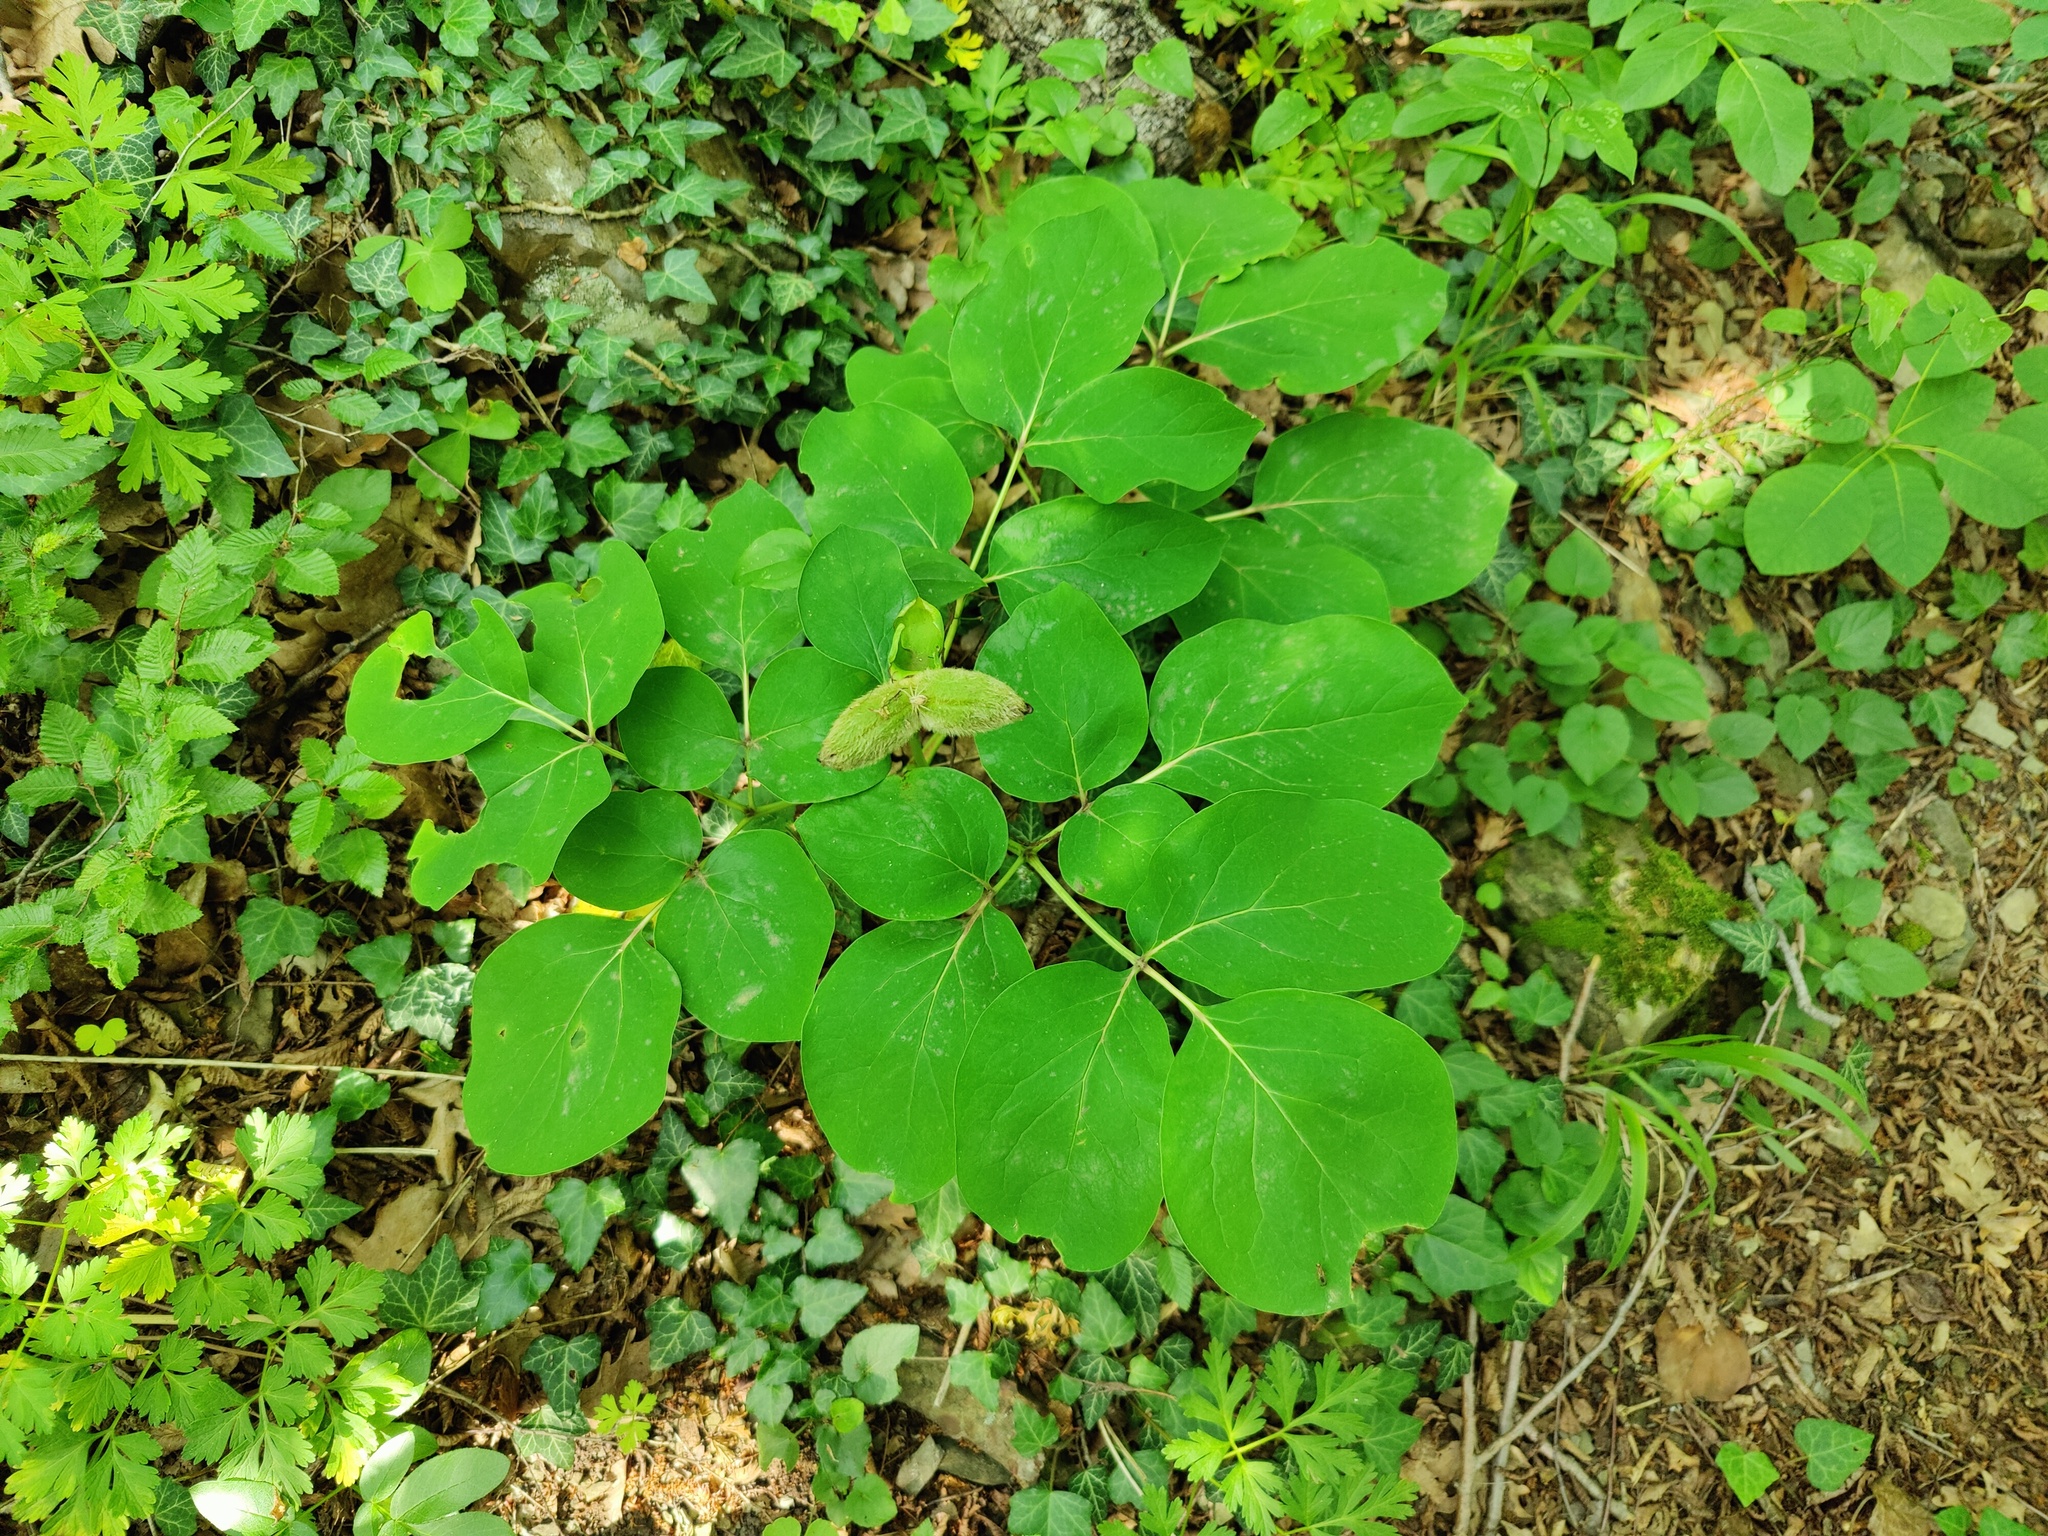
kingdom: Plantae
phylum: Tracheophyta
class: Magnoliopsida
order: Saxifragales
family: Paeoniaceae
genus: Paeonia
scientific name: Paeonia caucasica
